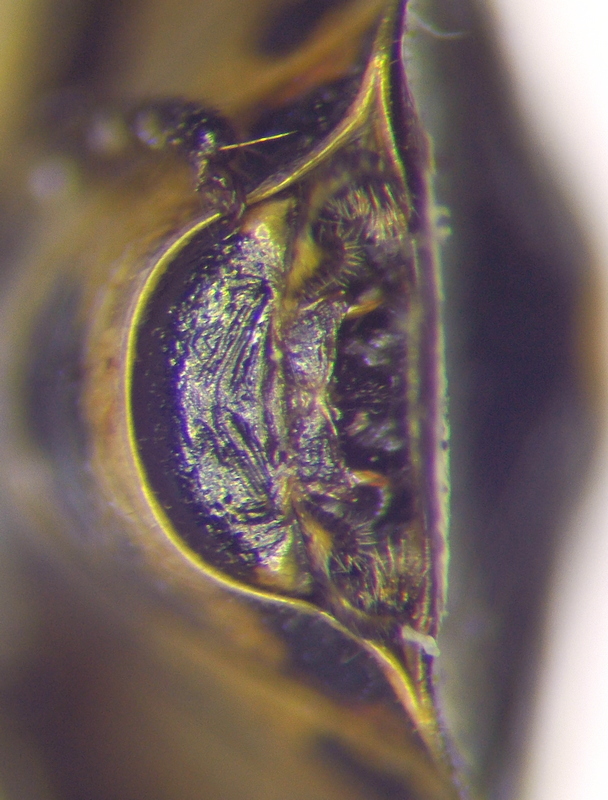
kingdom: Animalia
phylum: Arthropoda
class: Insecta
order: Hemiptera
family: Pentatomidae
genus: Eurydema
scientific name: Eurydema oleracea
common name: Cabbage bug
